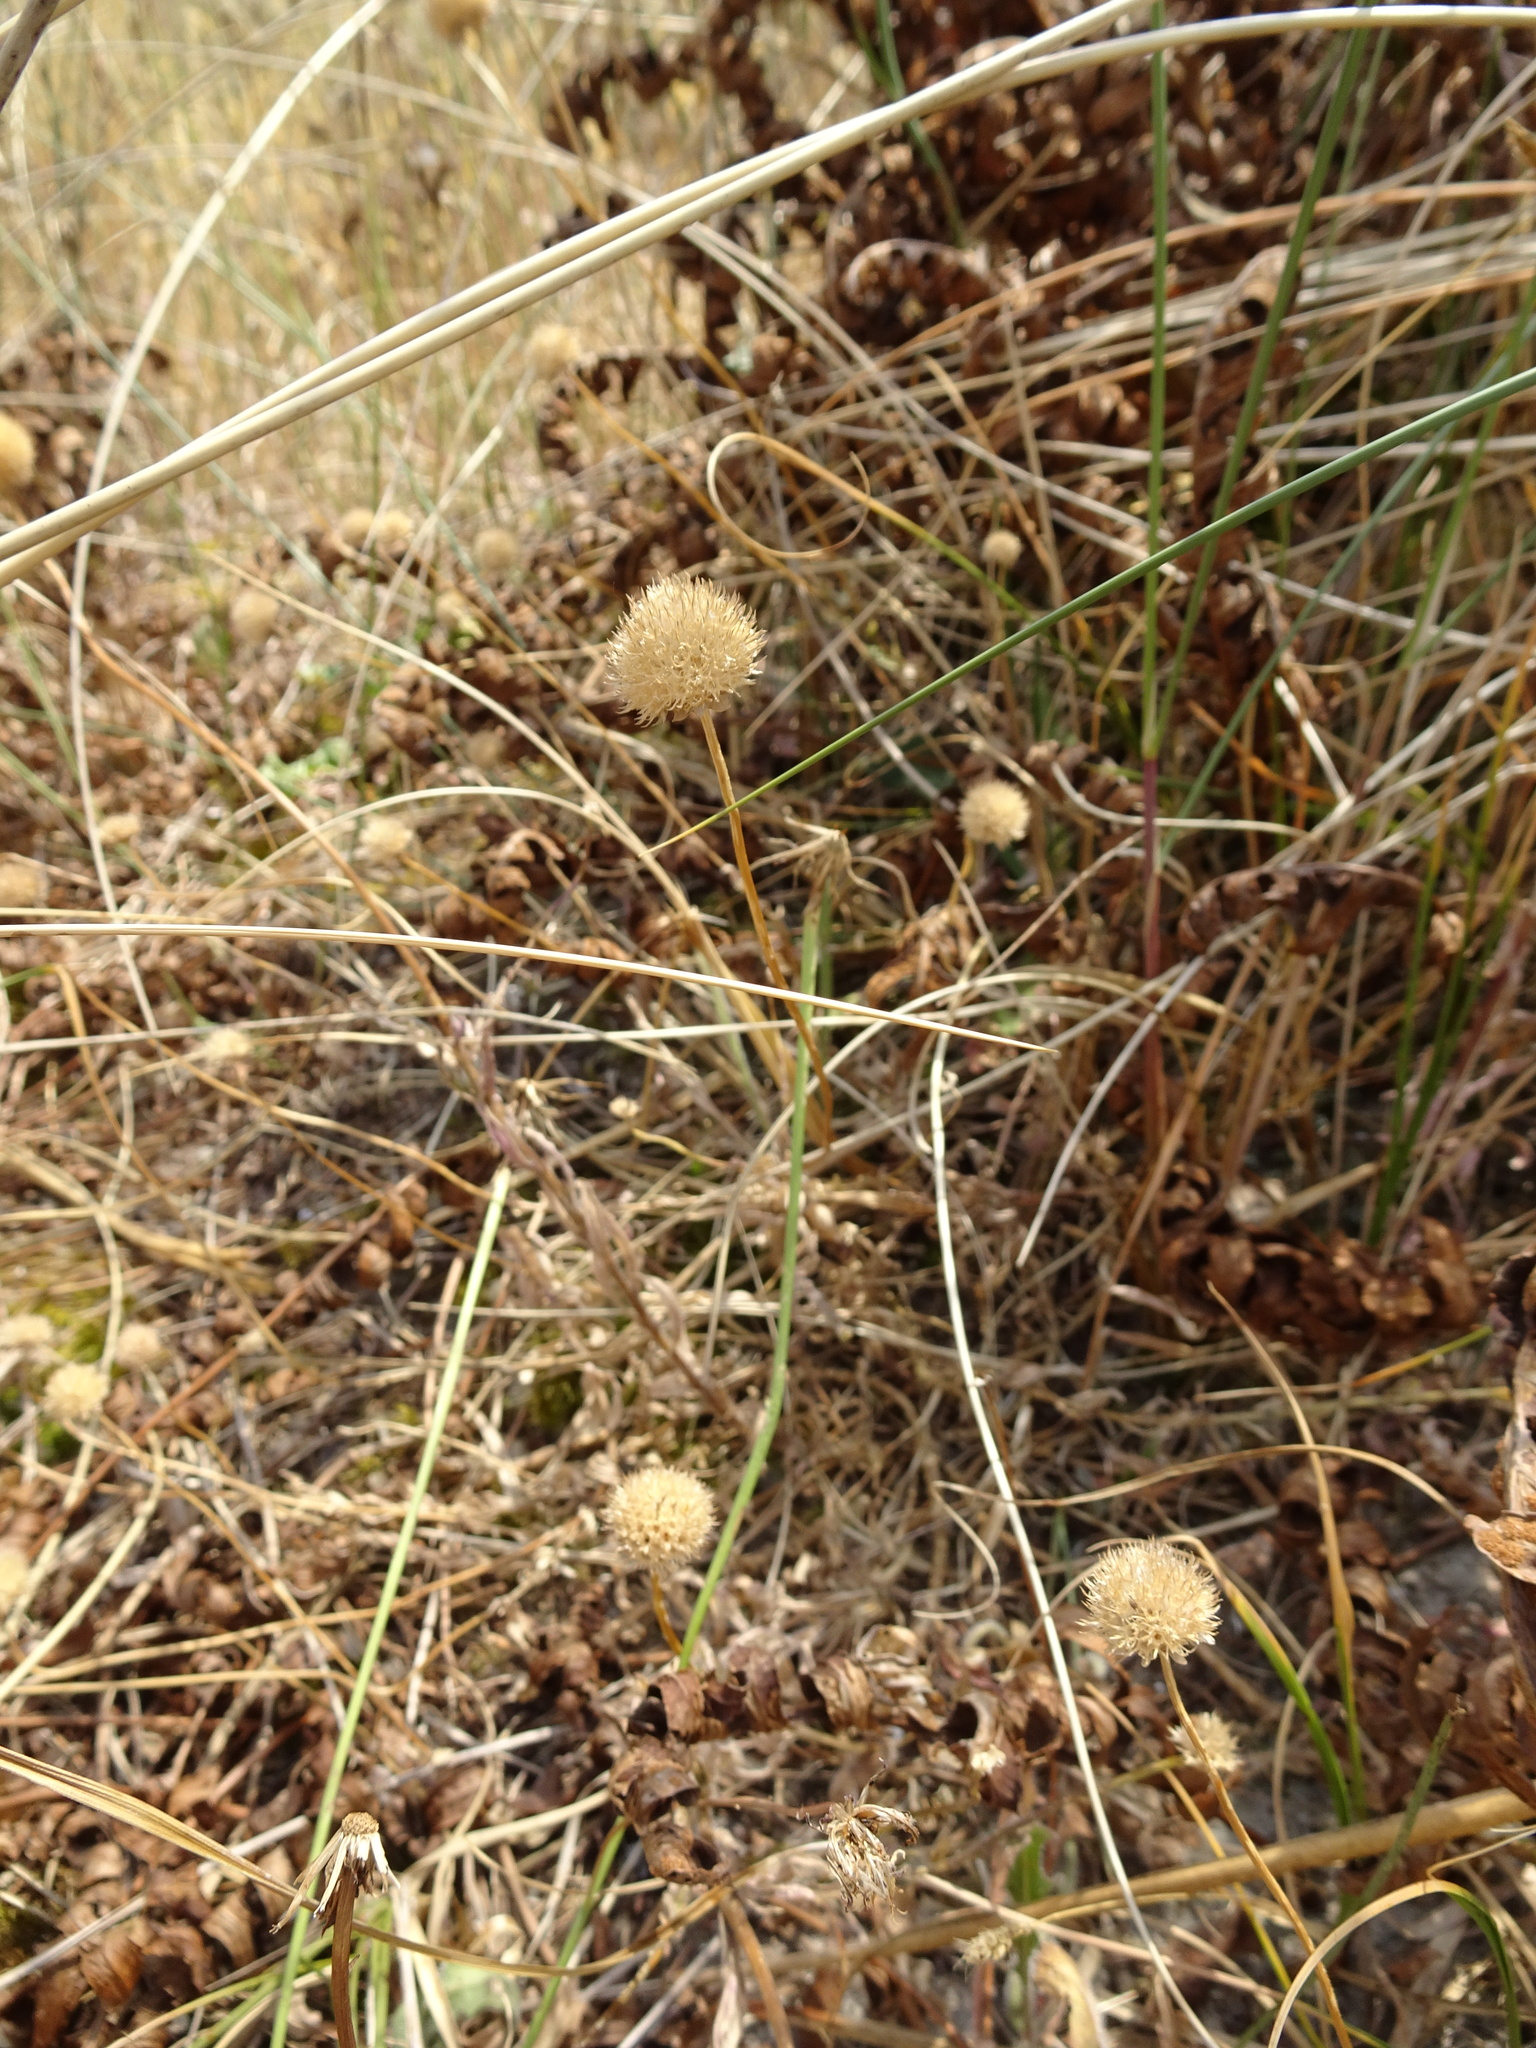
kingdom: Plantae
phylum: Tracheophyta
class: Magnoliopsida
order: Asterales
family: Campanulaceae
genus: Jasione
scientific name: Jasione montana
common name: Sheep's-bit
